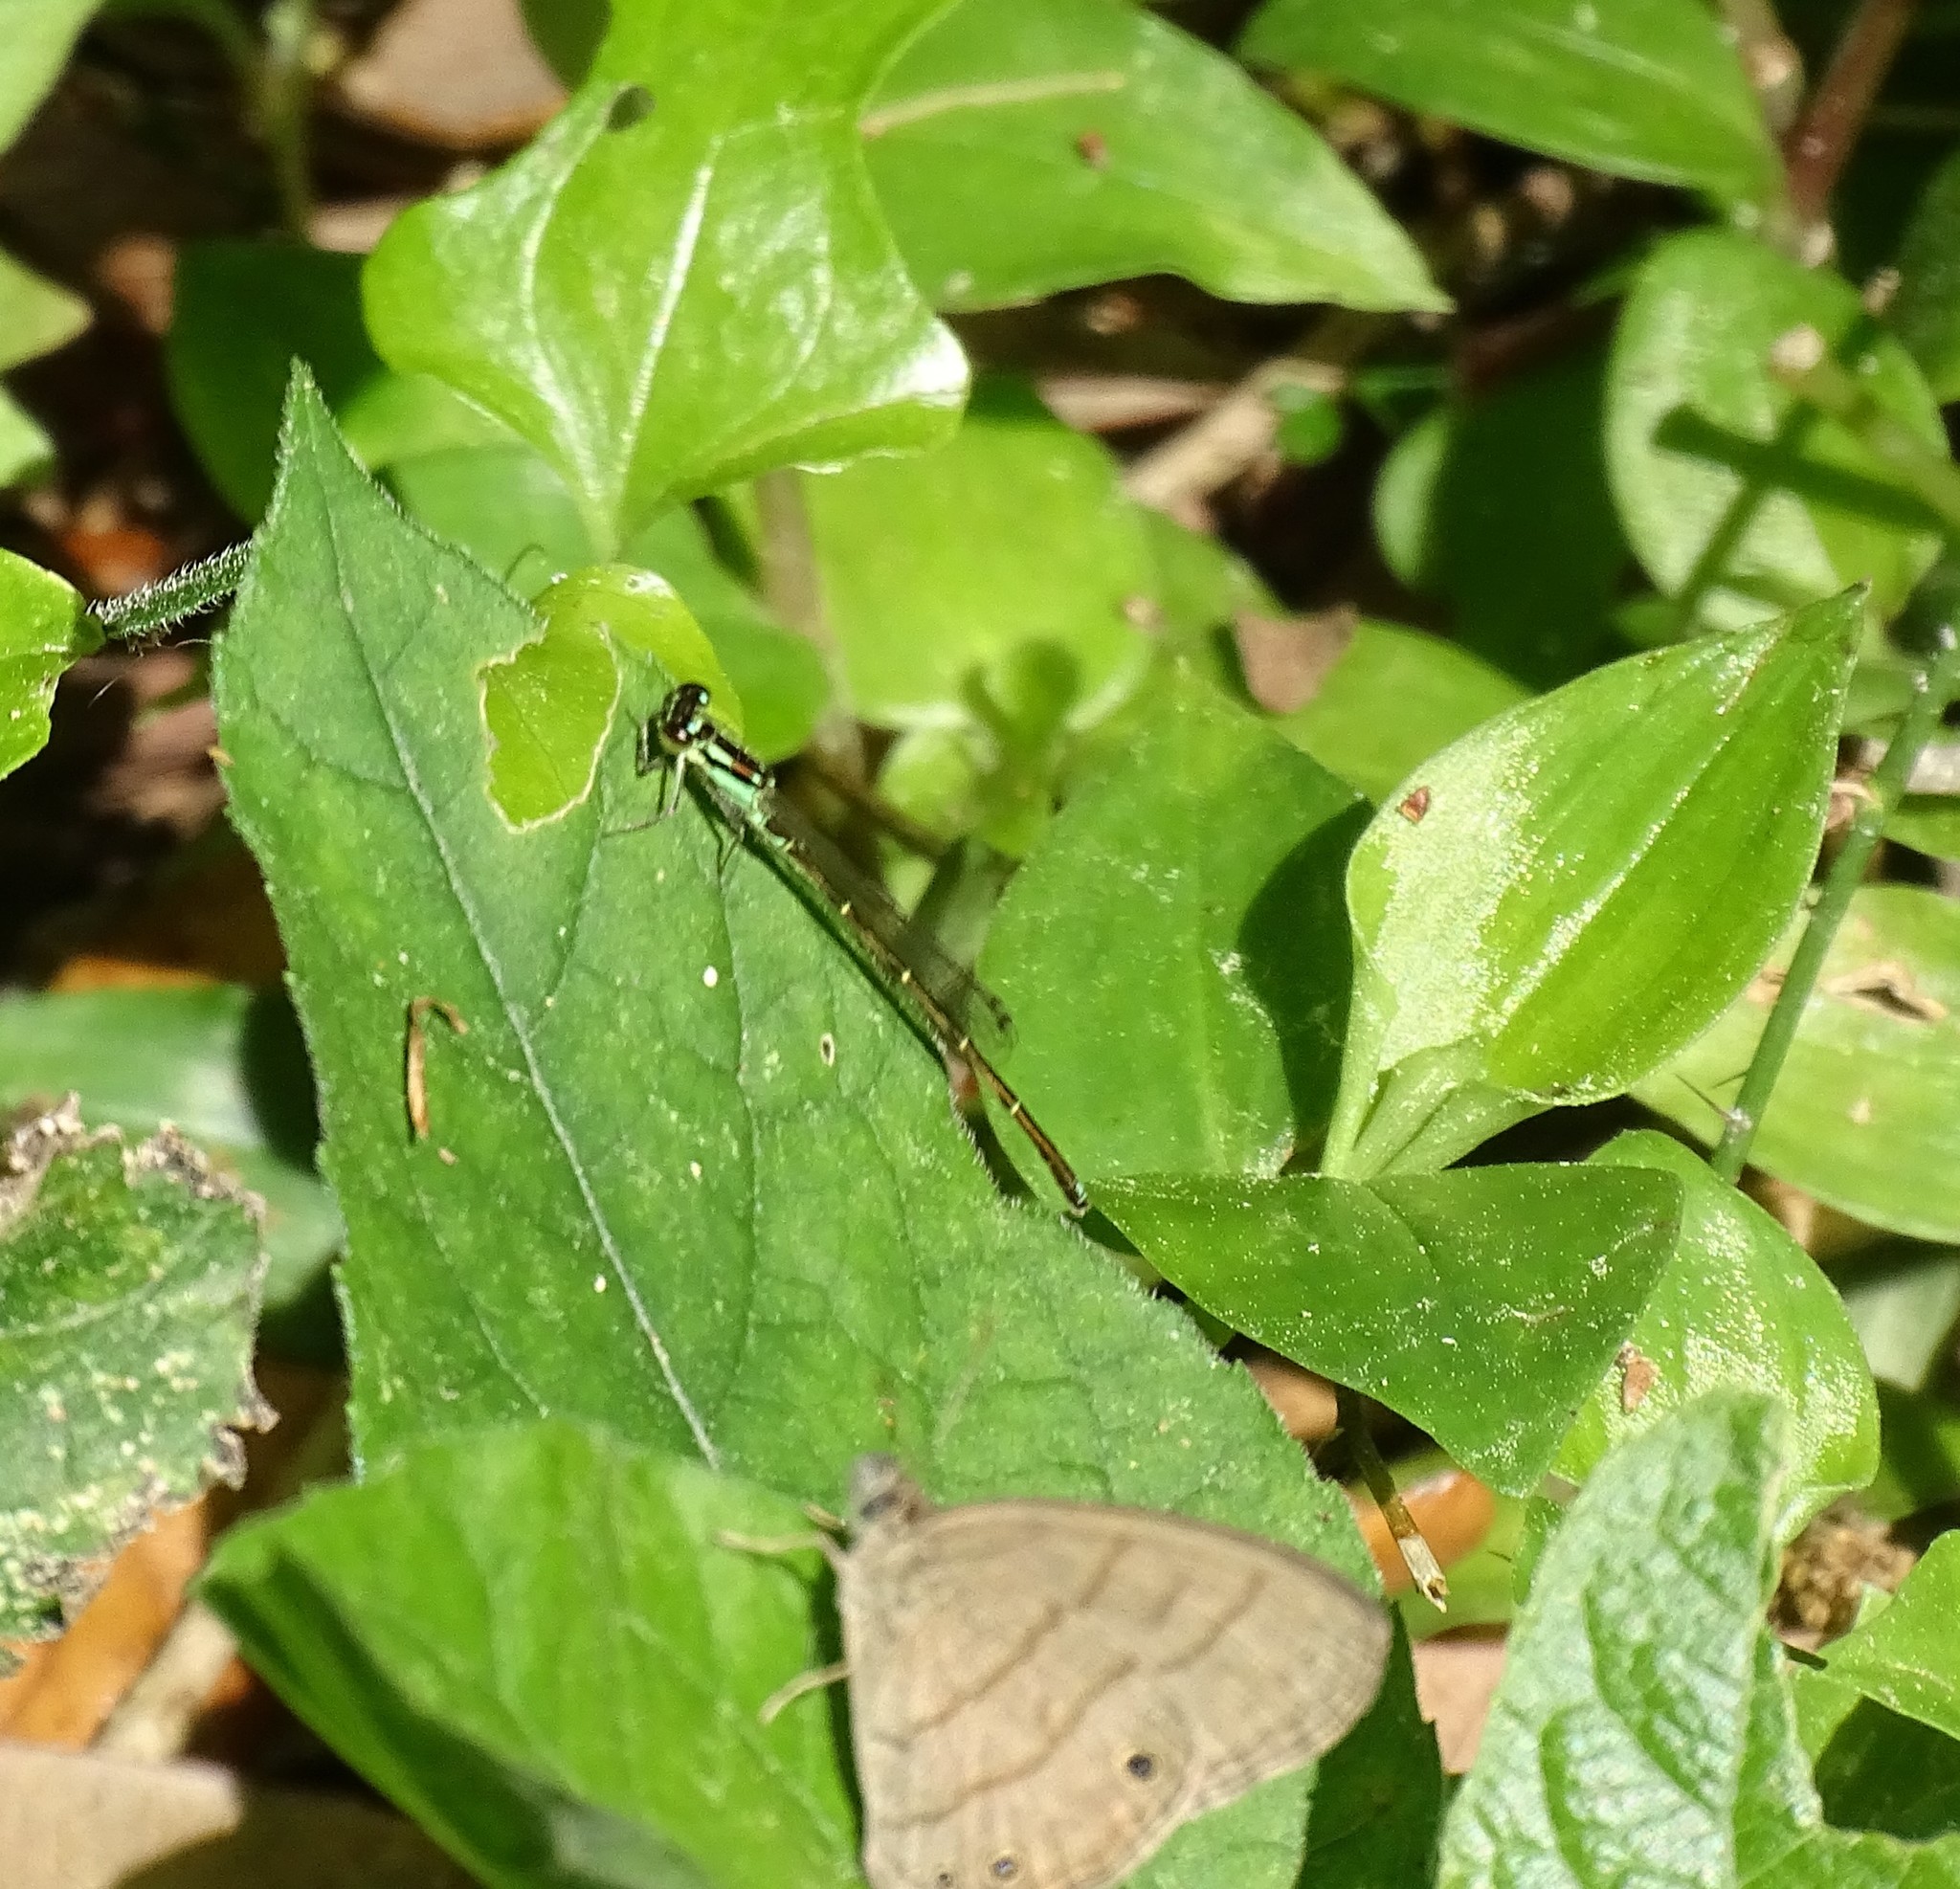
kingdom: Animalia
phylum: Arthropoda
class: Insecta
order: Odonata
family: Coenagrionidae
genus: Ischnura
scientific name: Ischnura posita
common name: Fragile forktail
